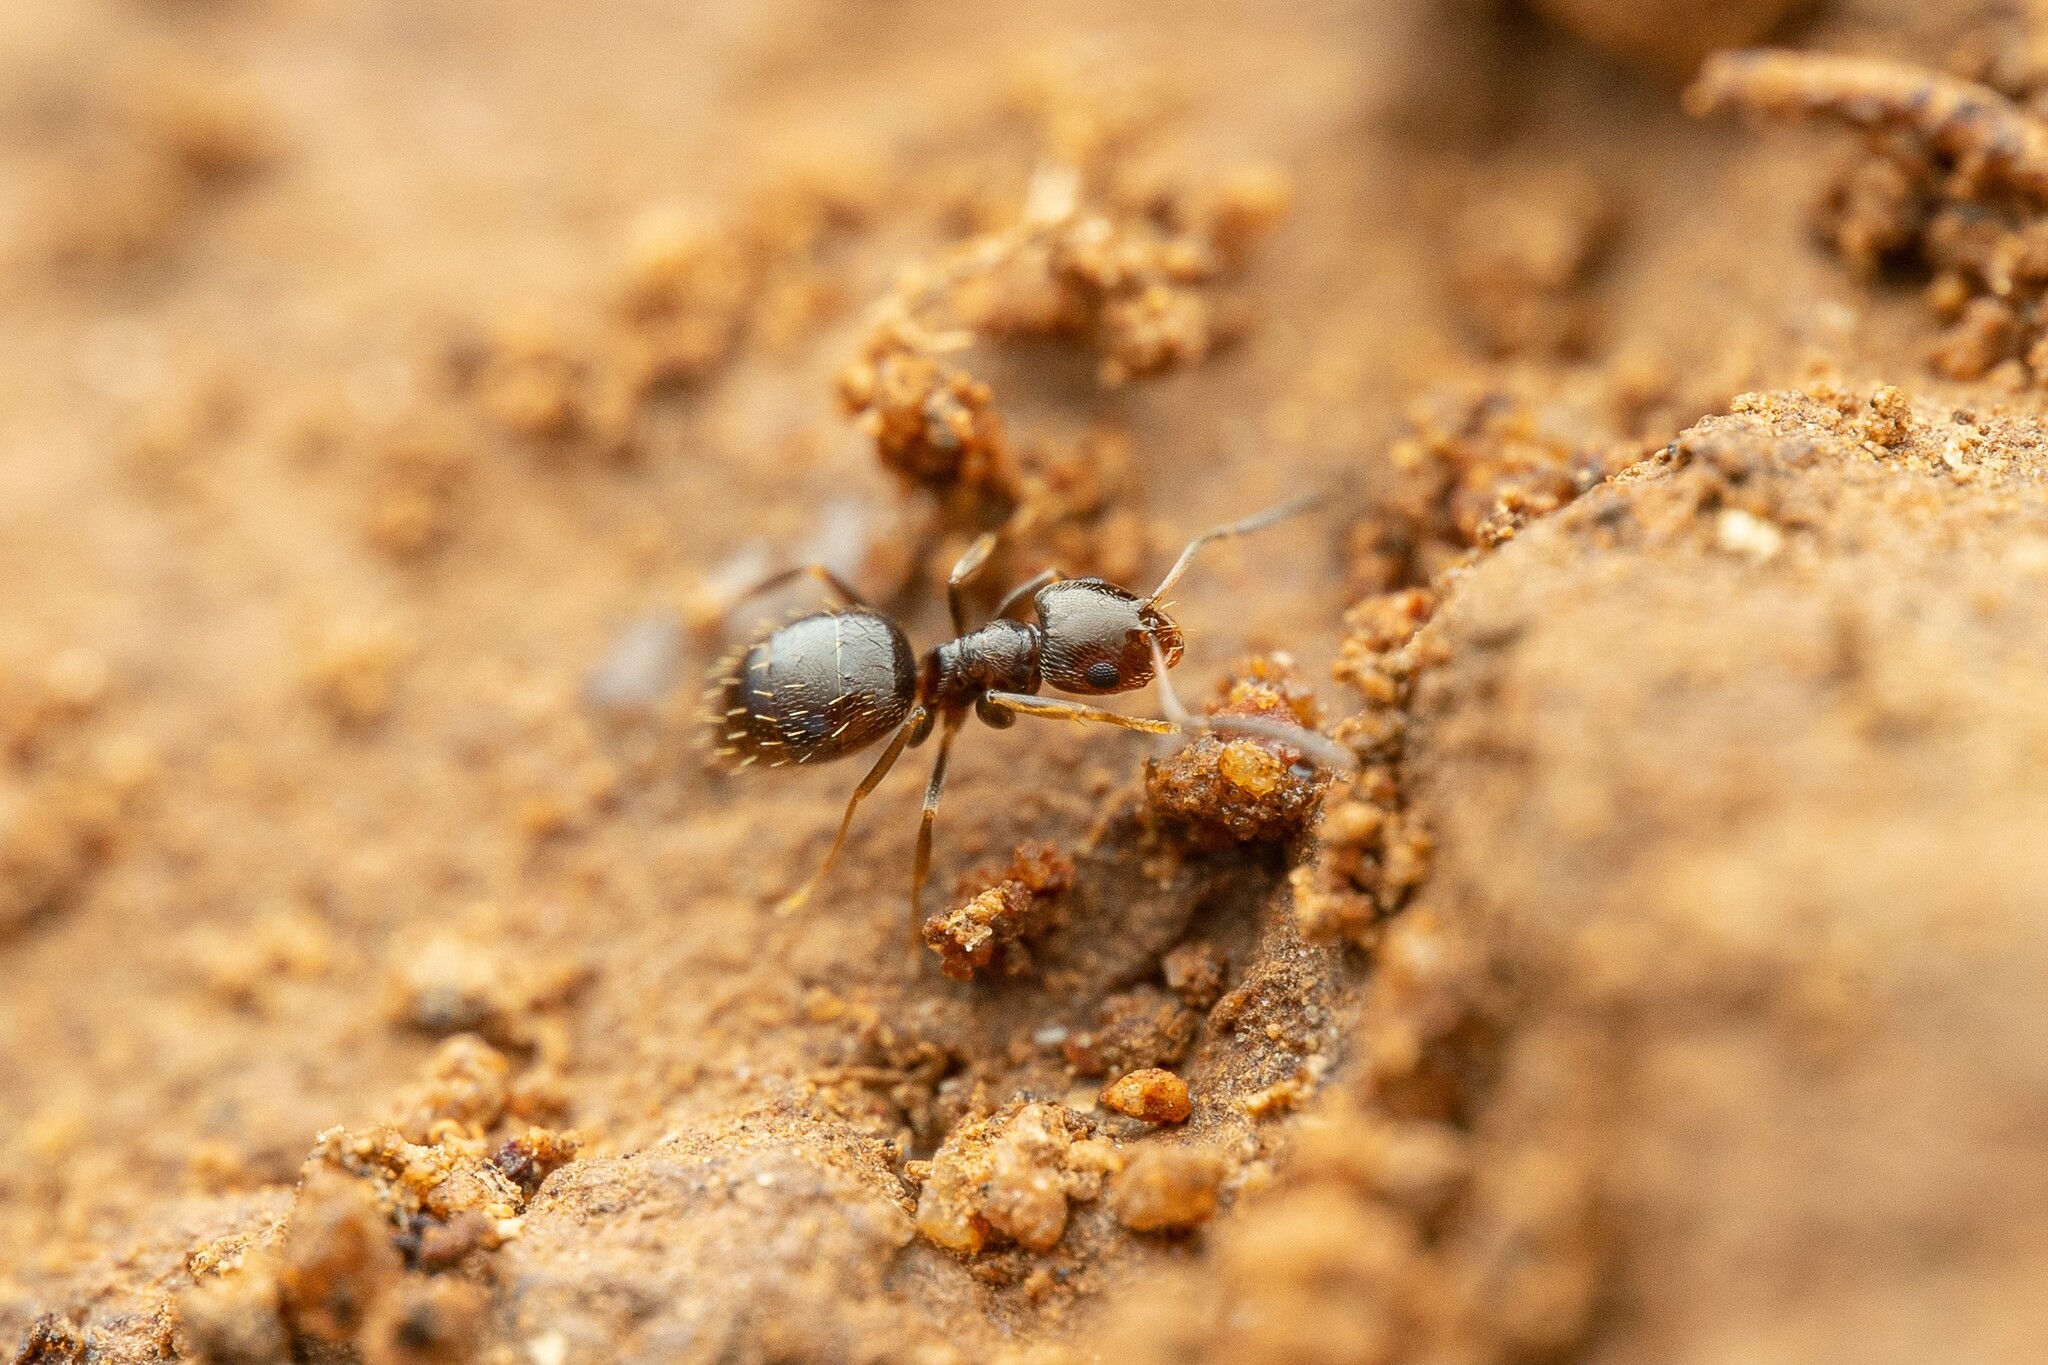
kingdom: Animalia
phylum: Arthropoda
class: Insecta
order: Hymenoptera
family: Formicidae
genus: Brachymyrmex
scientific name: Brachymyrmex patagonicus
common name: Dark rover ant
